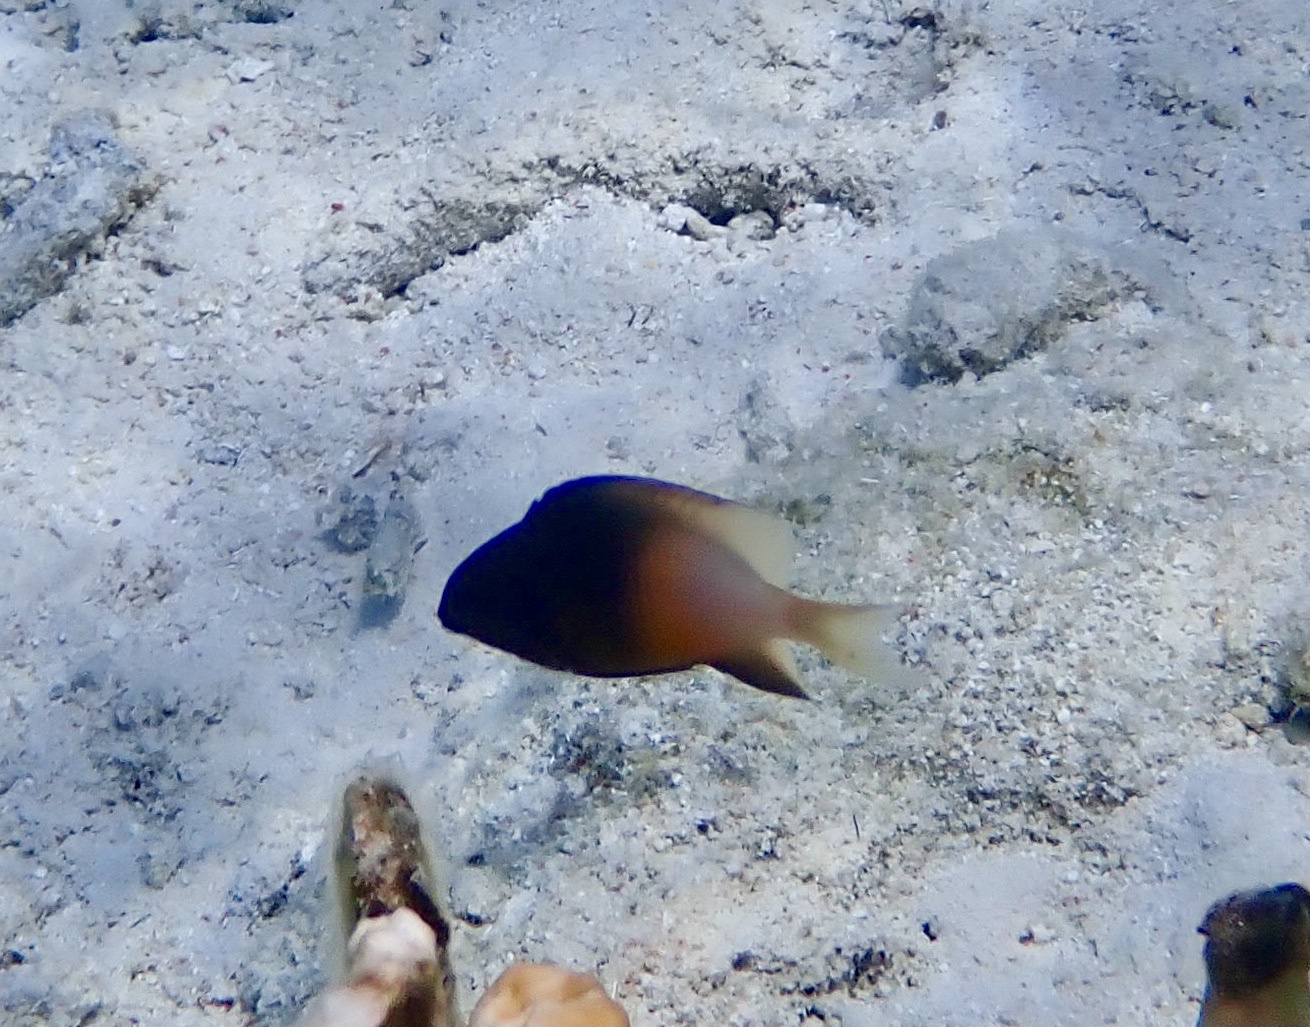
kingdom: Animalia
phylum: Chordata
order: Perciformes
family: Pomacentridae
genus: Stegastes
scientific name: Stegastes partitus
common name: Bicolor damselfish
